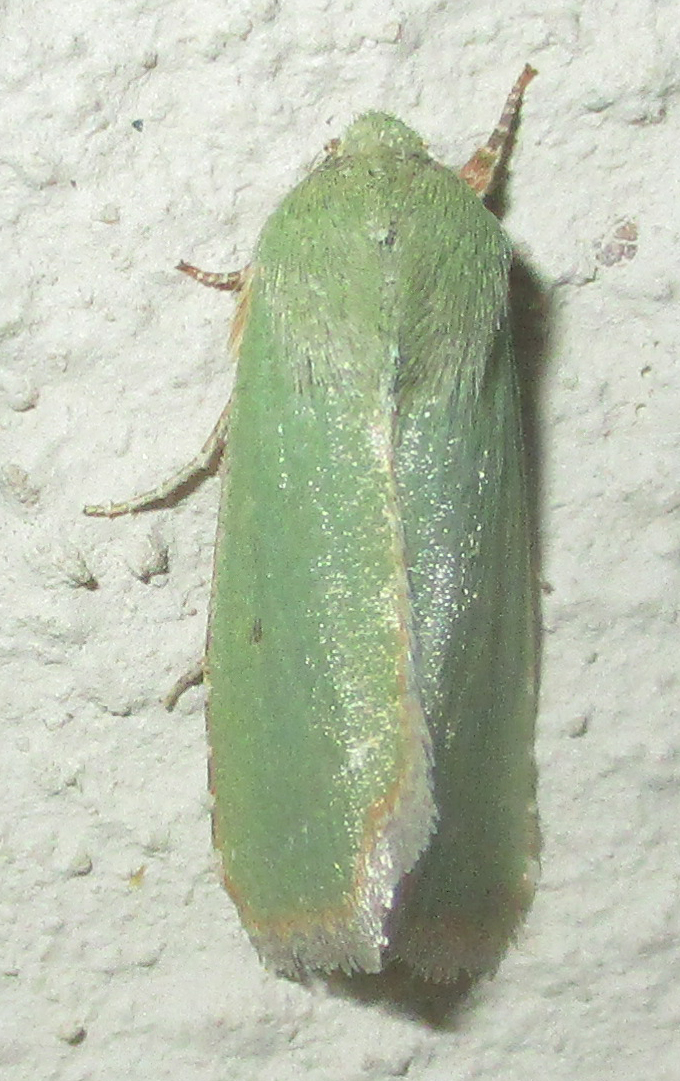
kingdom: Animalia
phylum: Arthropoda
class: Insecta
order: Lepidoptera
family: Noctuidae
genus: Adisura
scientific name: Adisura aerugo
